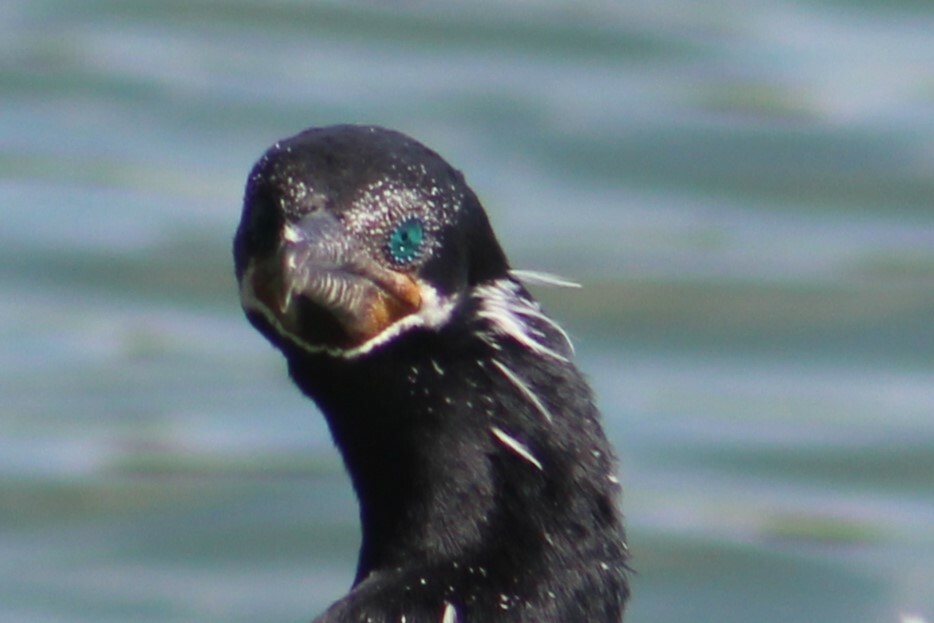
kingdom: Animalia
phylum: Chordata
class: Aves
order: Suliformes
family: Phalacrocoracidae
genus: Phalacrocorax
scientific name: Phalacrocorax brasilianus
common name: Neotropic cormorant
